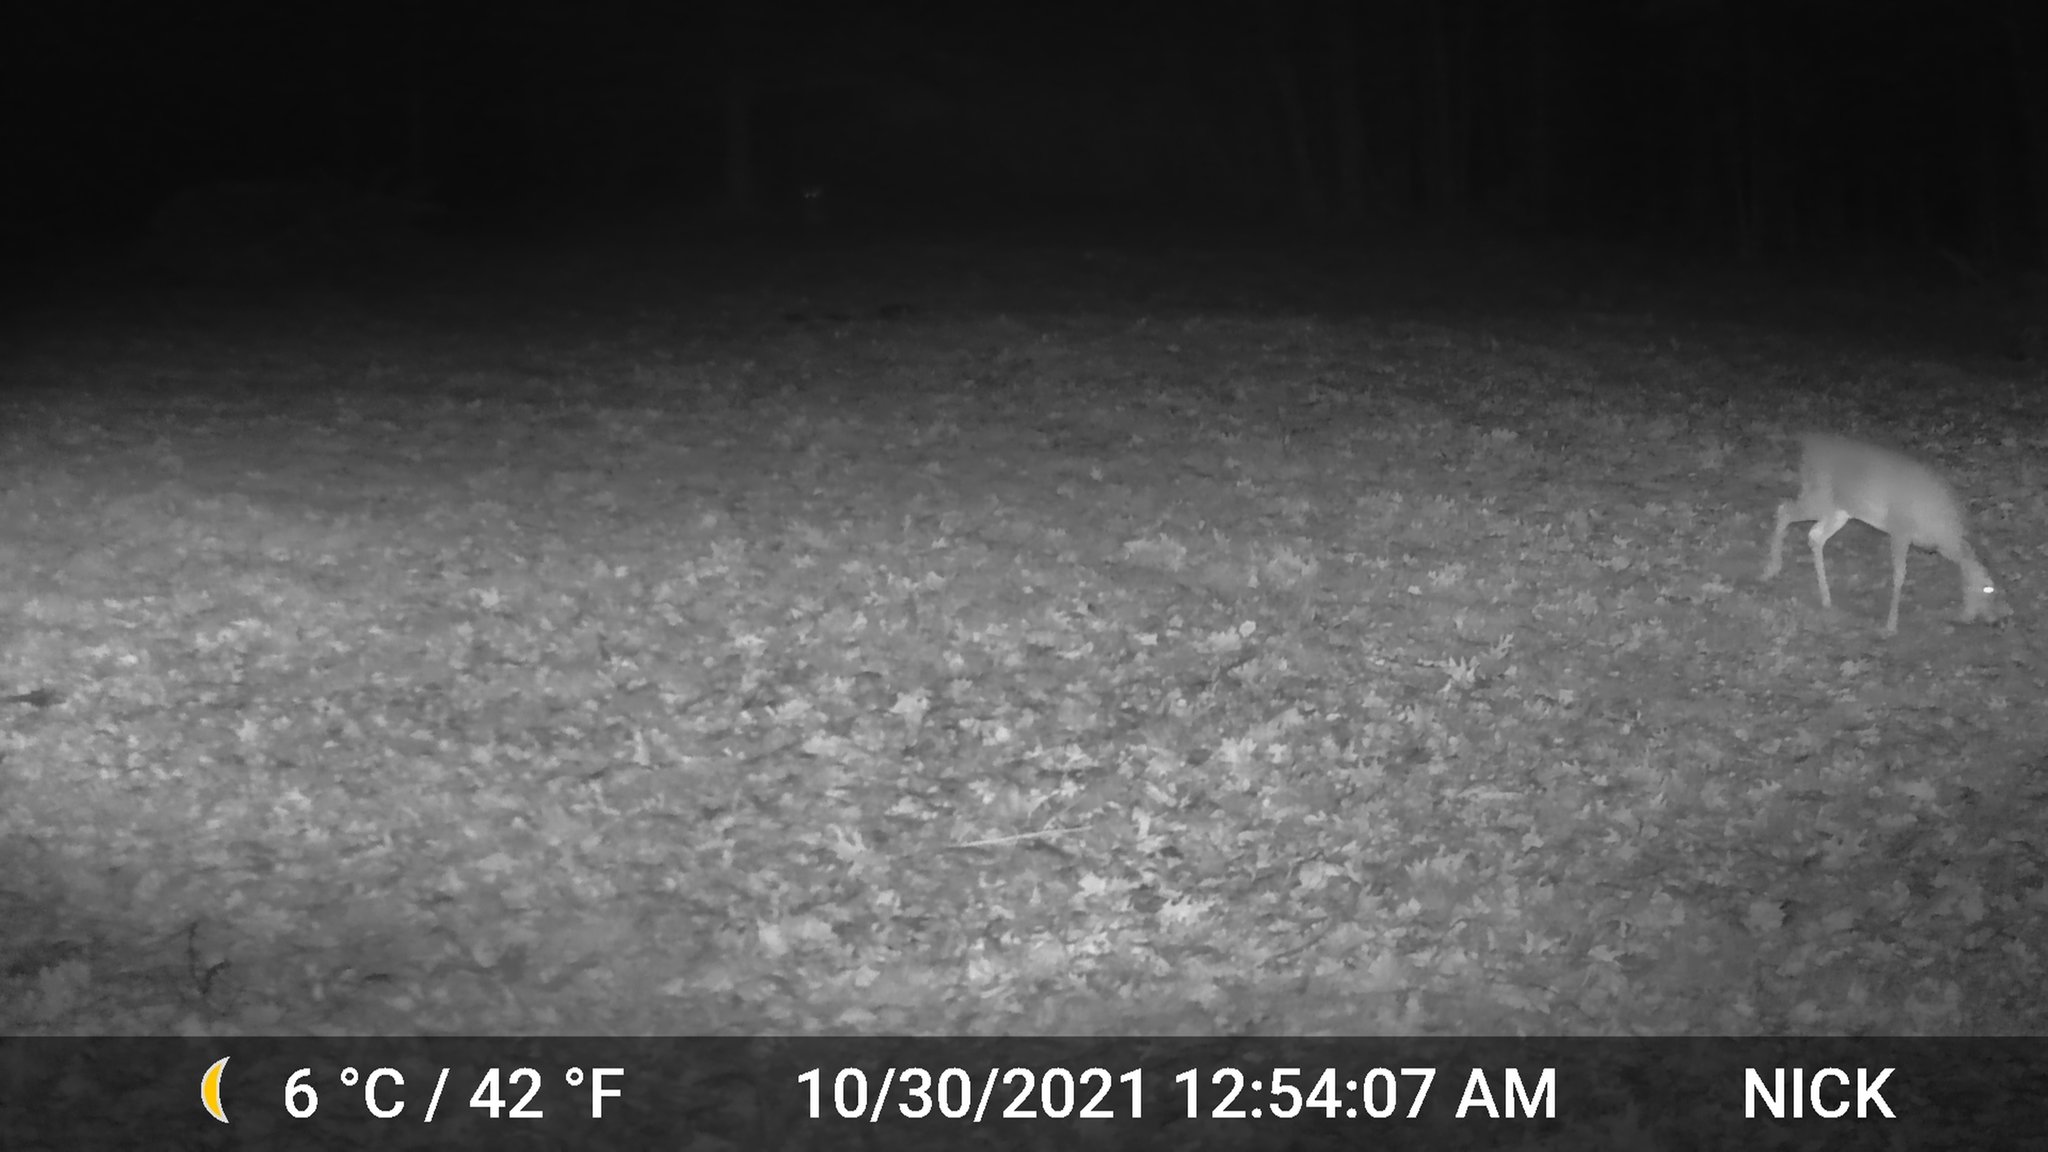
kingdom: Animalia
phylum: Chordata
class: Mammalia
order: Artiodactyla
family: Cervidae
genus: Odocoileus
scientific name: Odocoileus virginianus
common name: White-tailed deer
